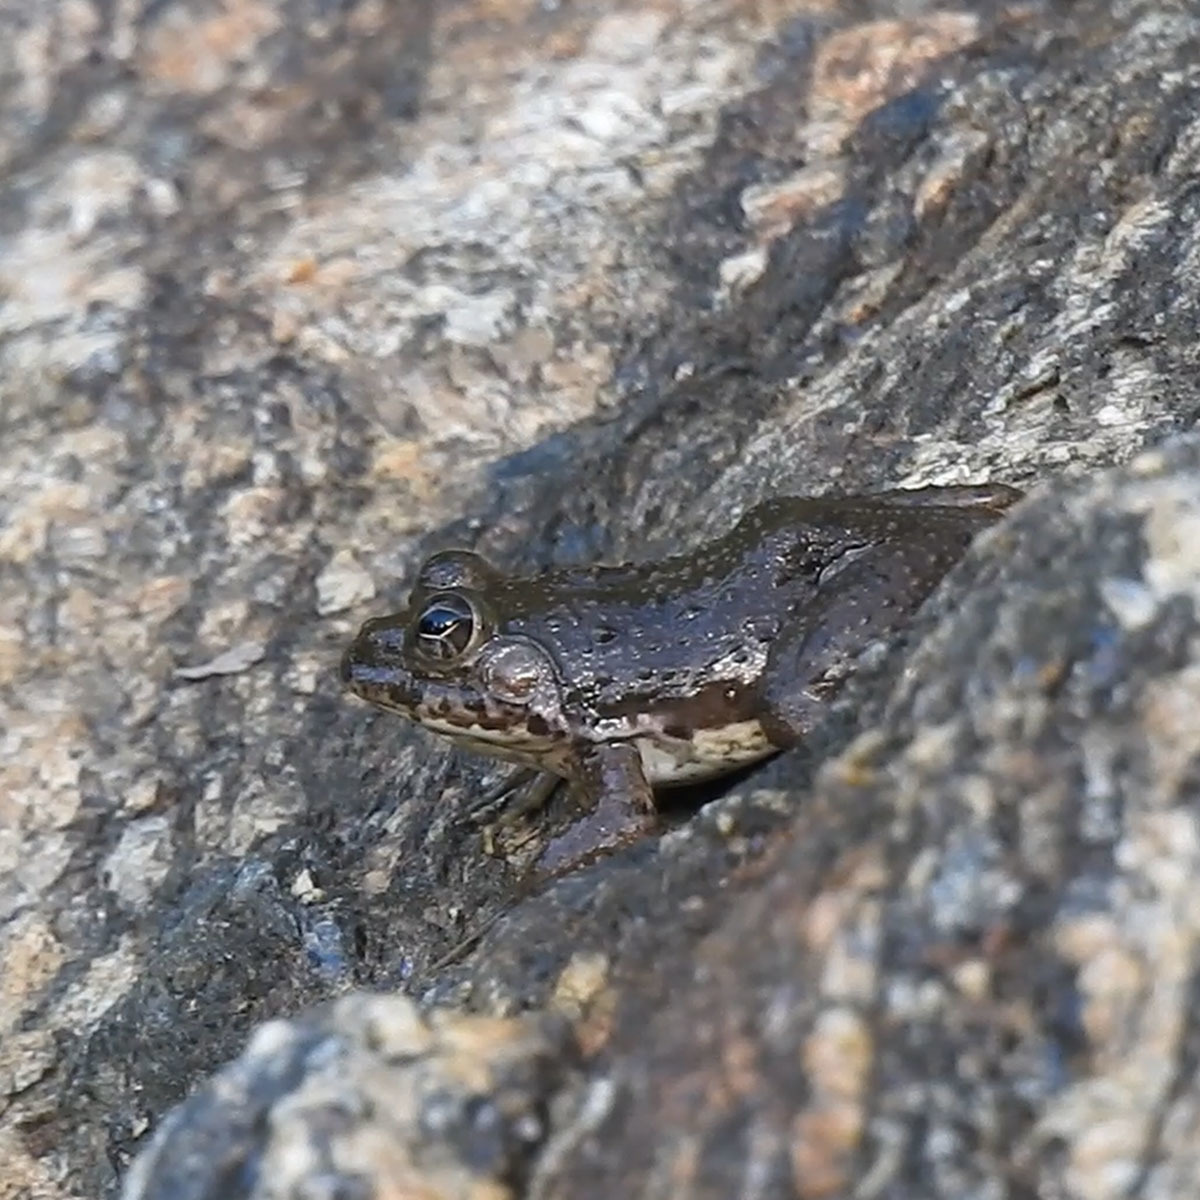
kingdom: Animalia
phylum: Chordata
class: Amphibia
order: Anura
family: Dicroglossidae
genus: Euphlyctis
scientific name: Euphlyctis cyanophlyctis
